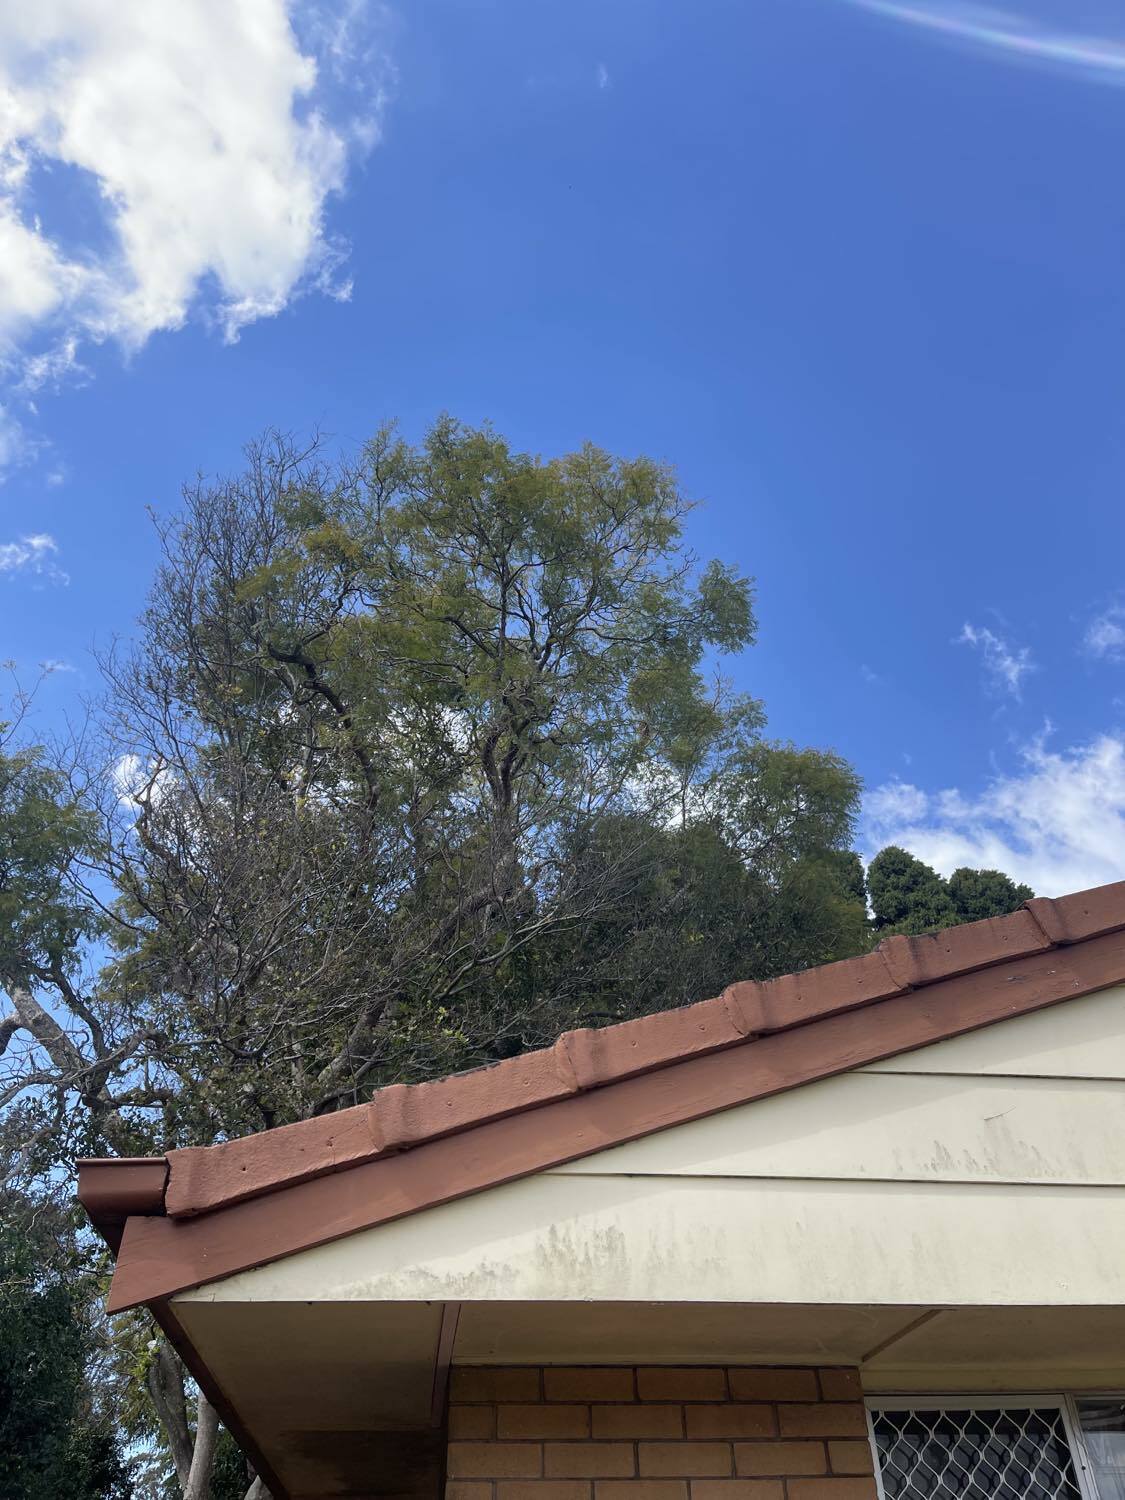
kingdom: Animalia
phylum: Chordata
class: Mammalia
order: Diprotodontia
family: Phascolarctidae
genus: Phascolarctos
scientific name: Phascolarctos cinereus
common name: Koala
